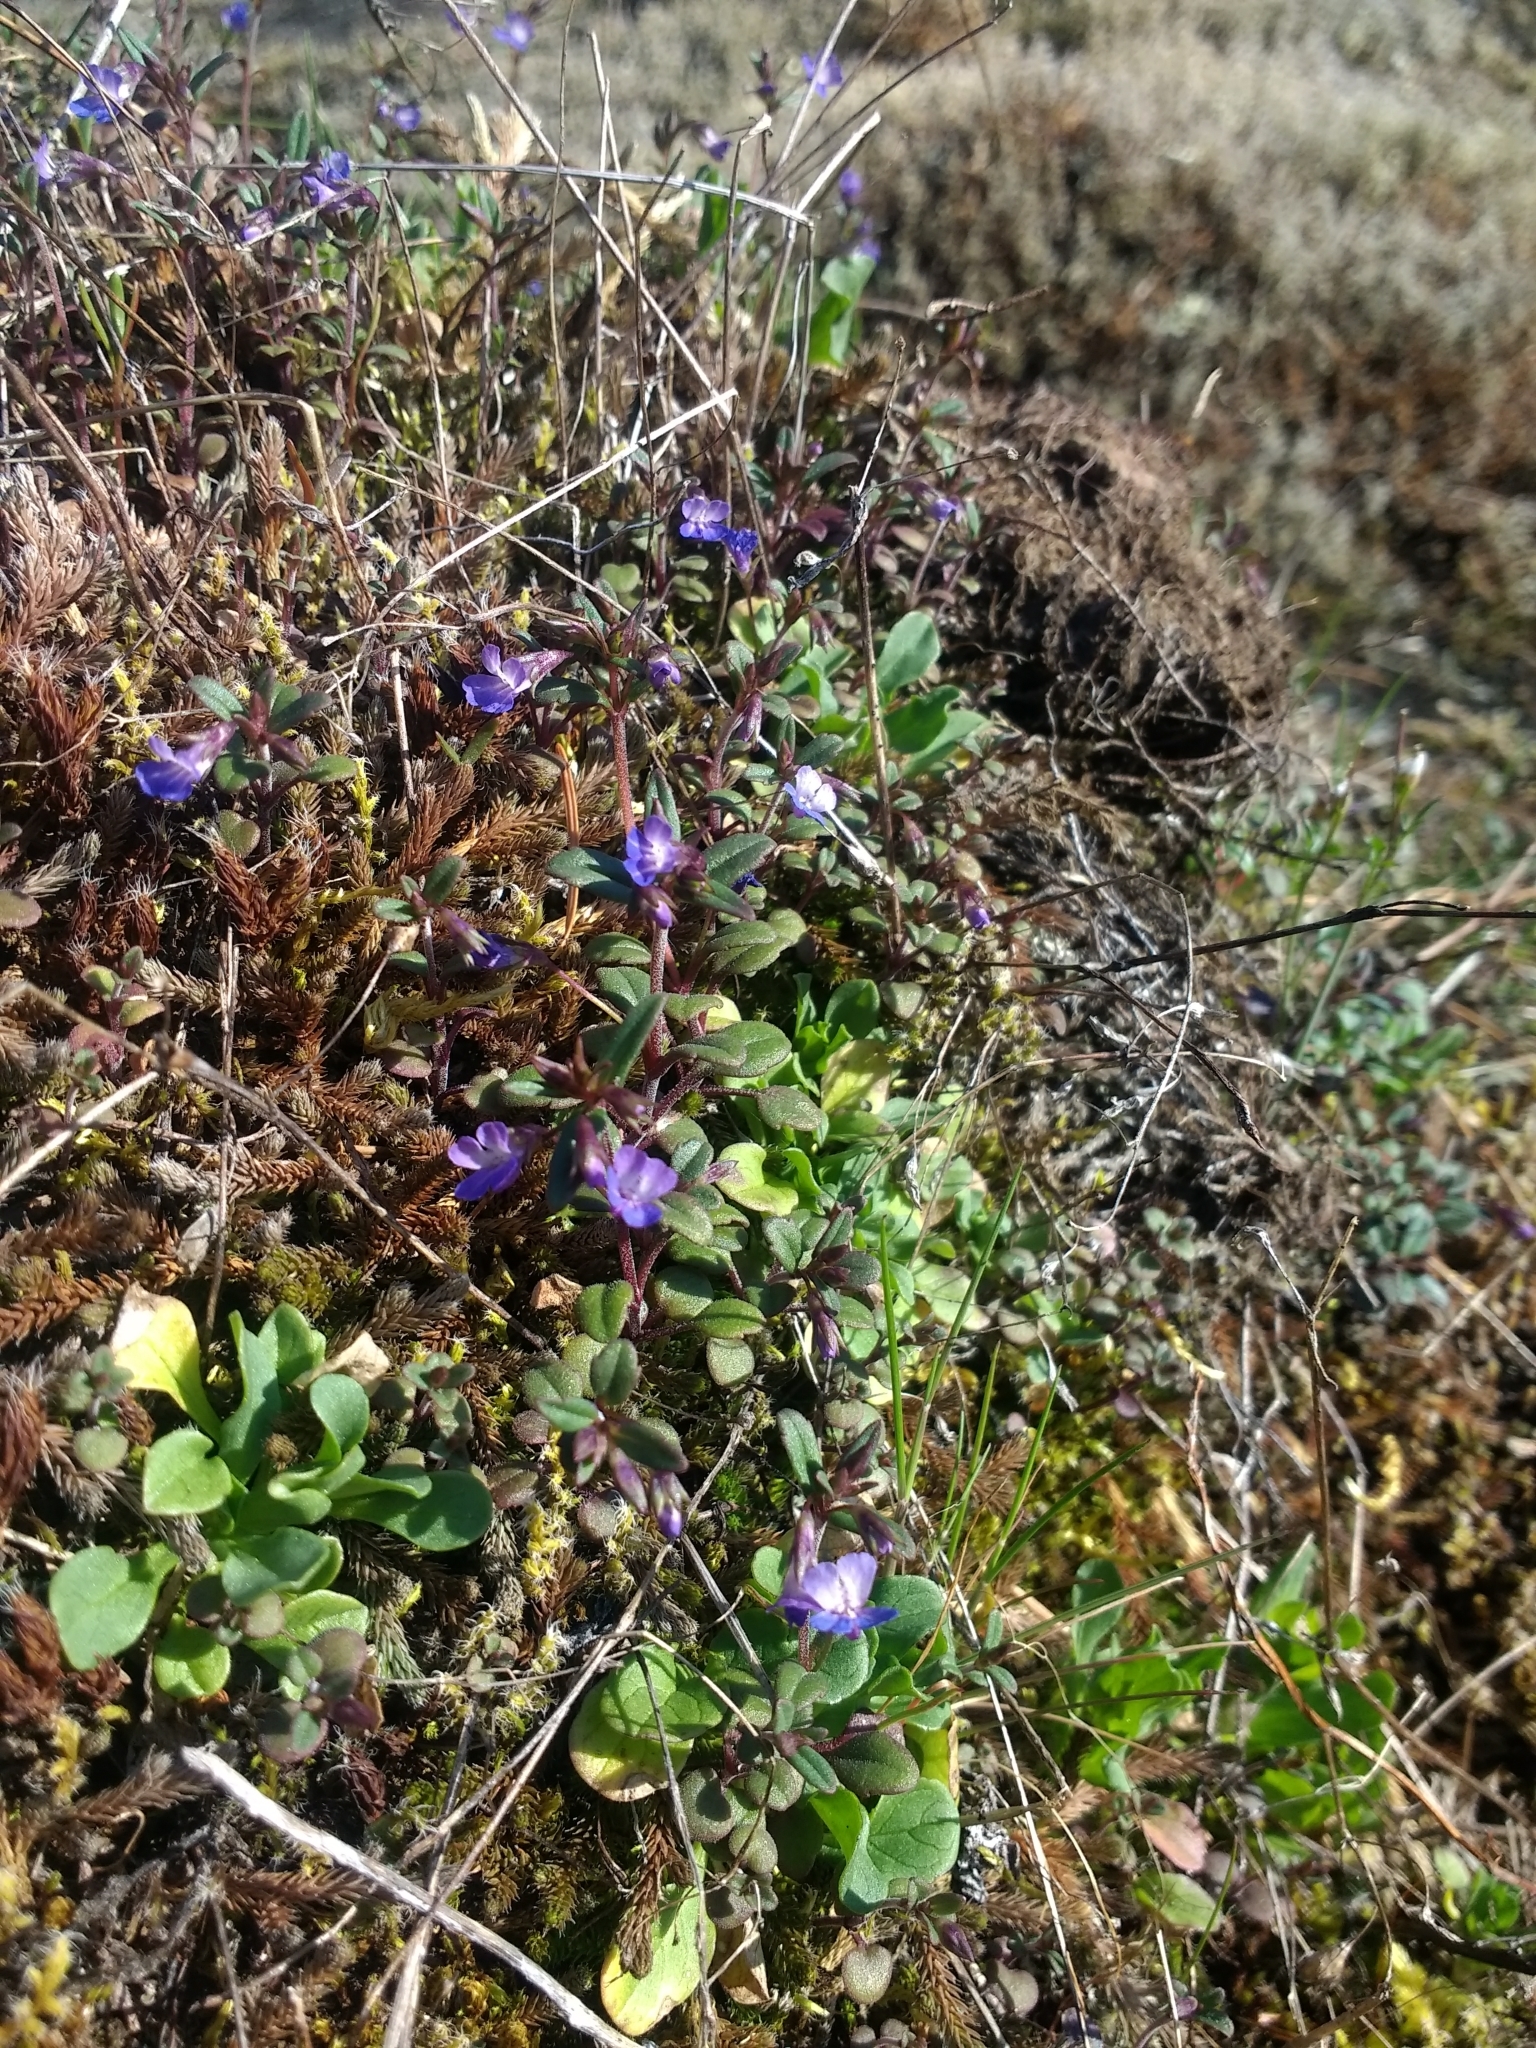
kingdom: Plantae
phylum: Tracheophyta
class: Magnoliopsida
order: Lamiales
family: Plantaginaceae
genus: Collinsia
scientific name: Collinsia parviflora
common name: Blue-lips
